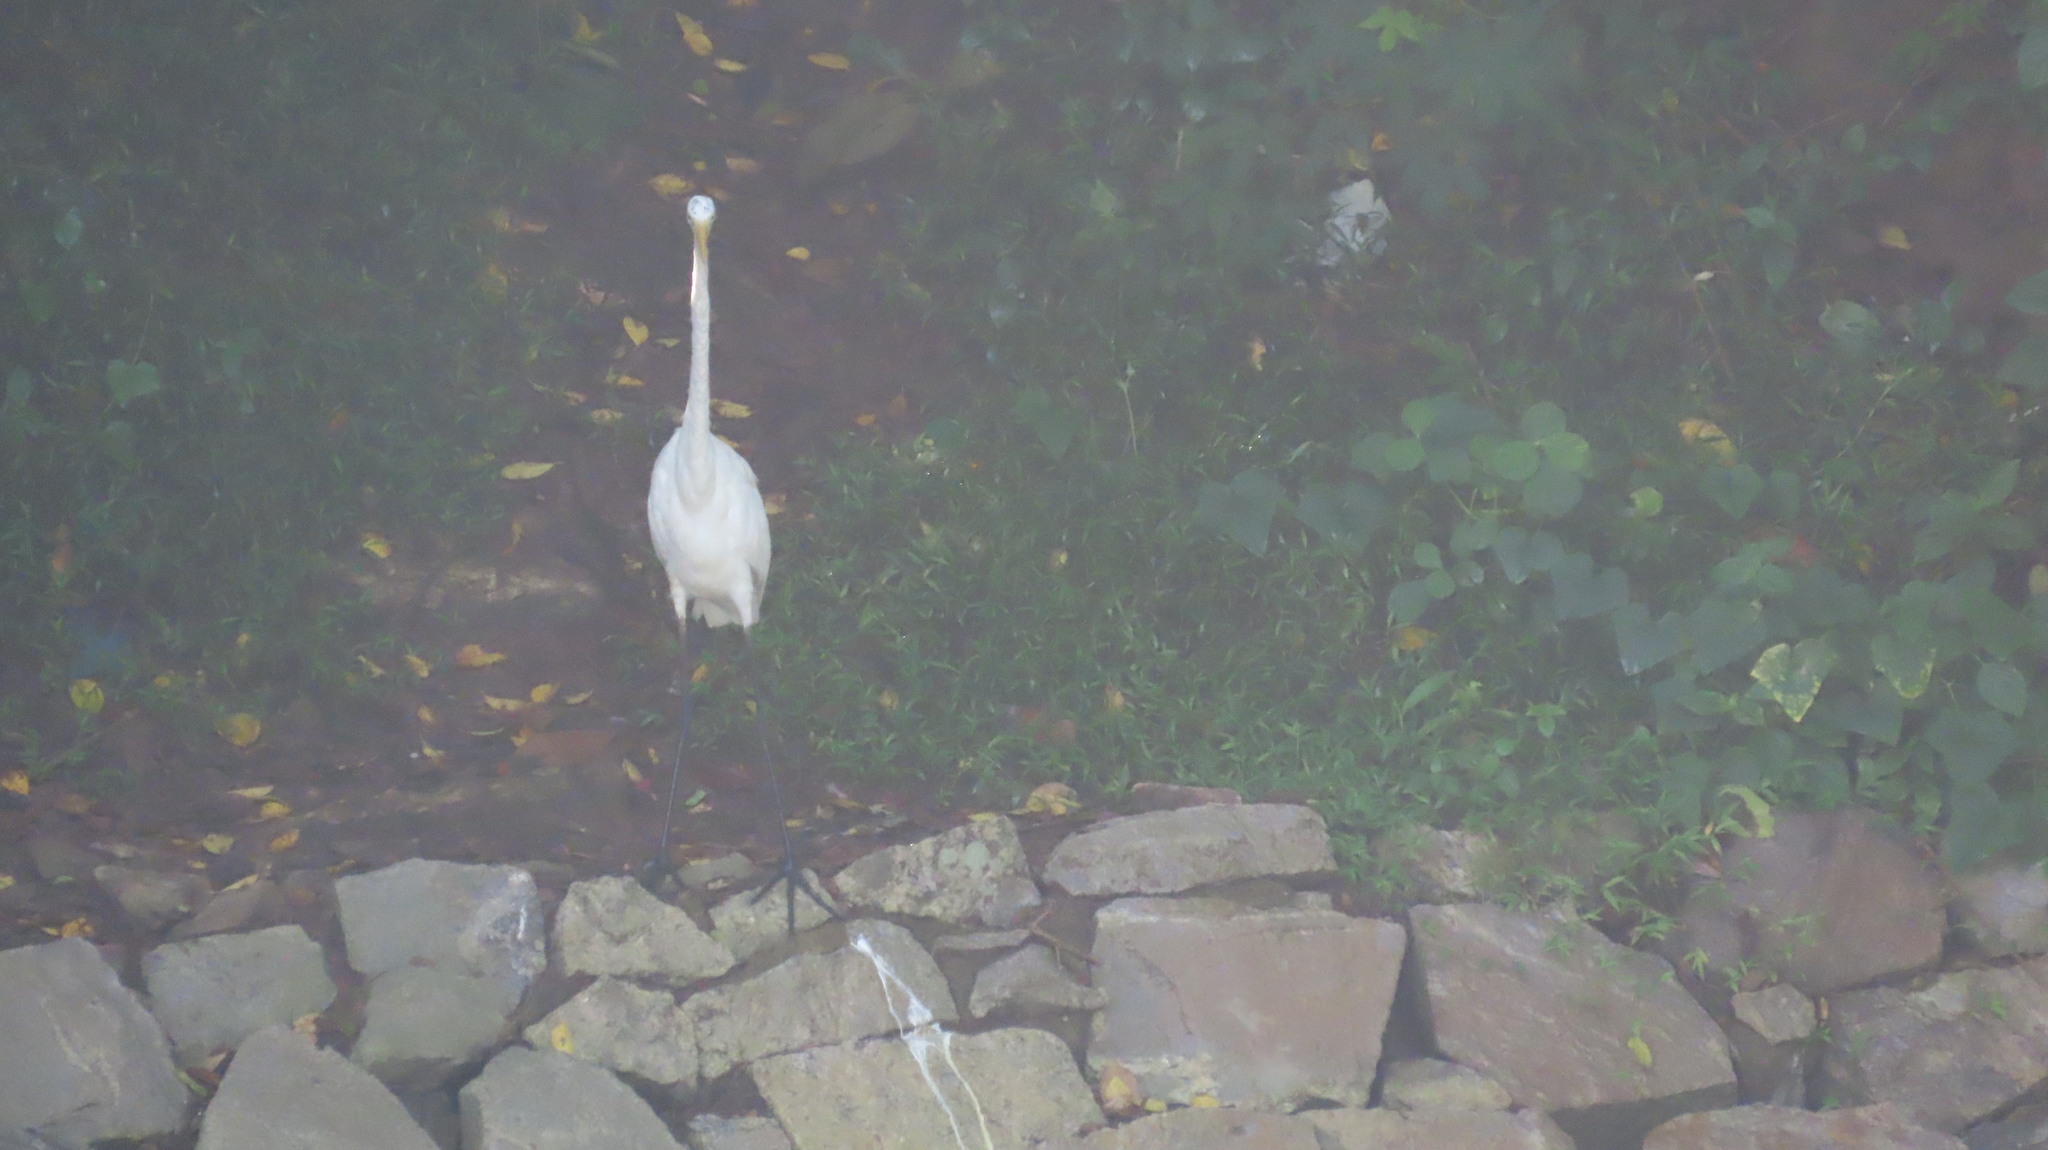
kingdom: Animalia
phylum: Chordata
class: Aves
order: Pelecaniformes
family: Ardeidae
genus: Ardea
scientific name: Ardea alba
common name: Great egret
